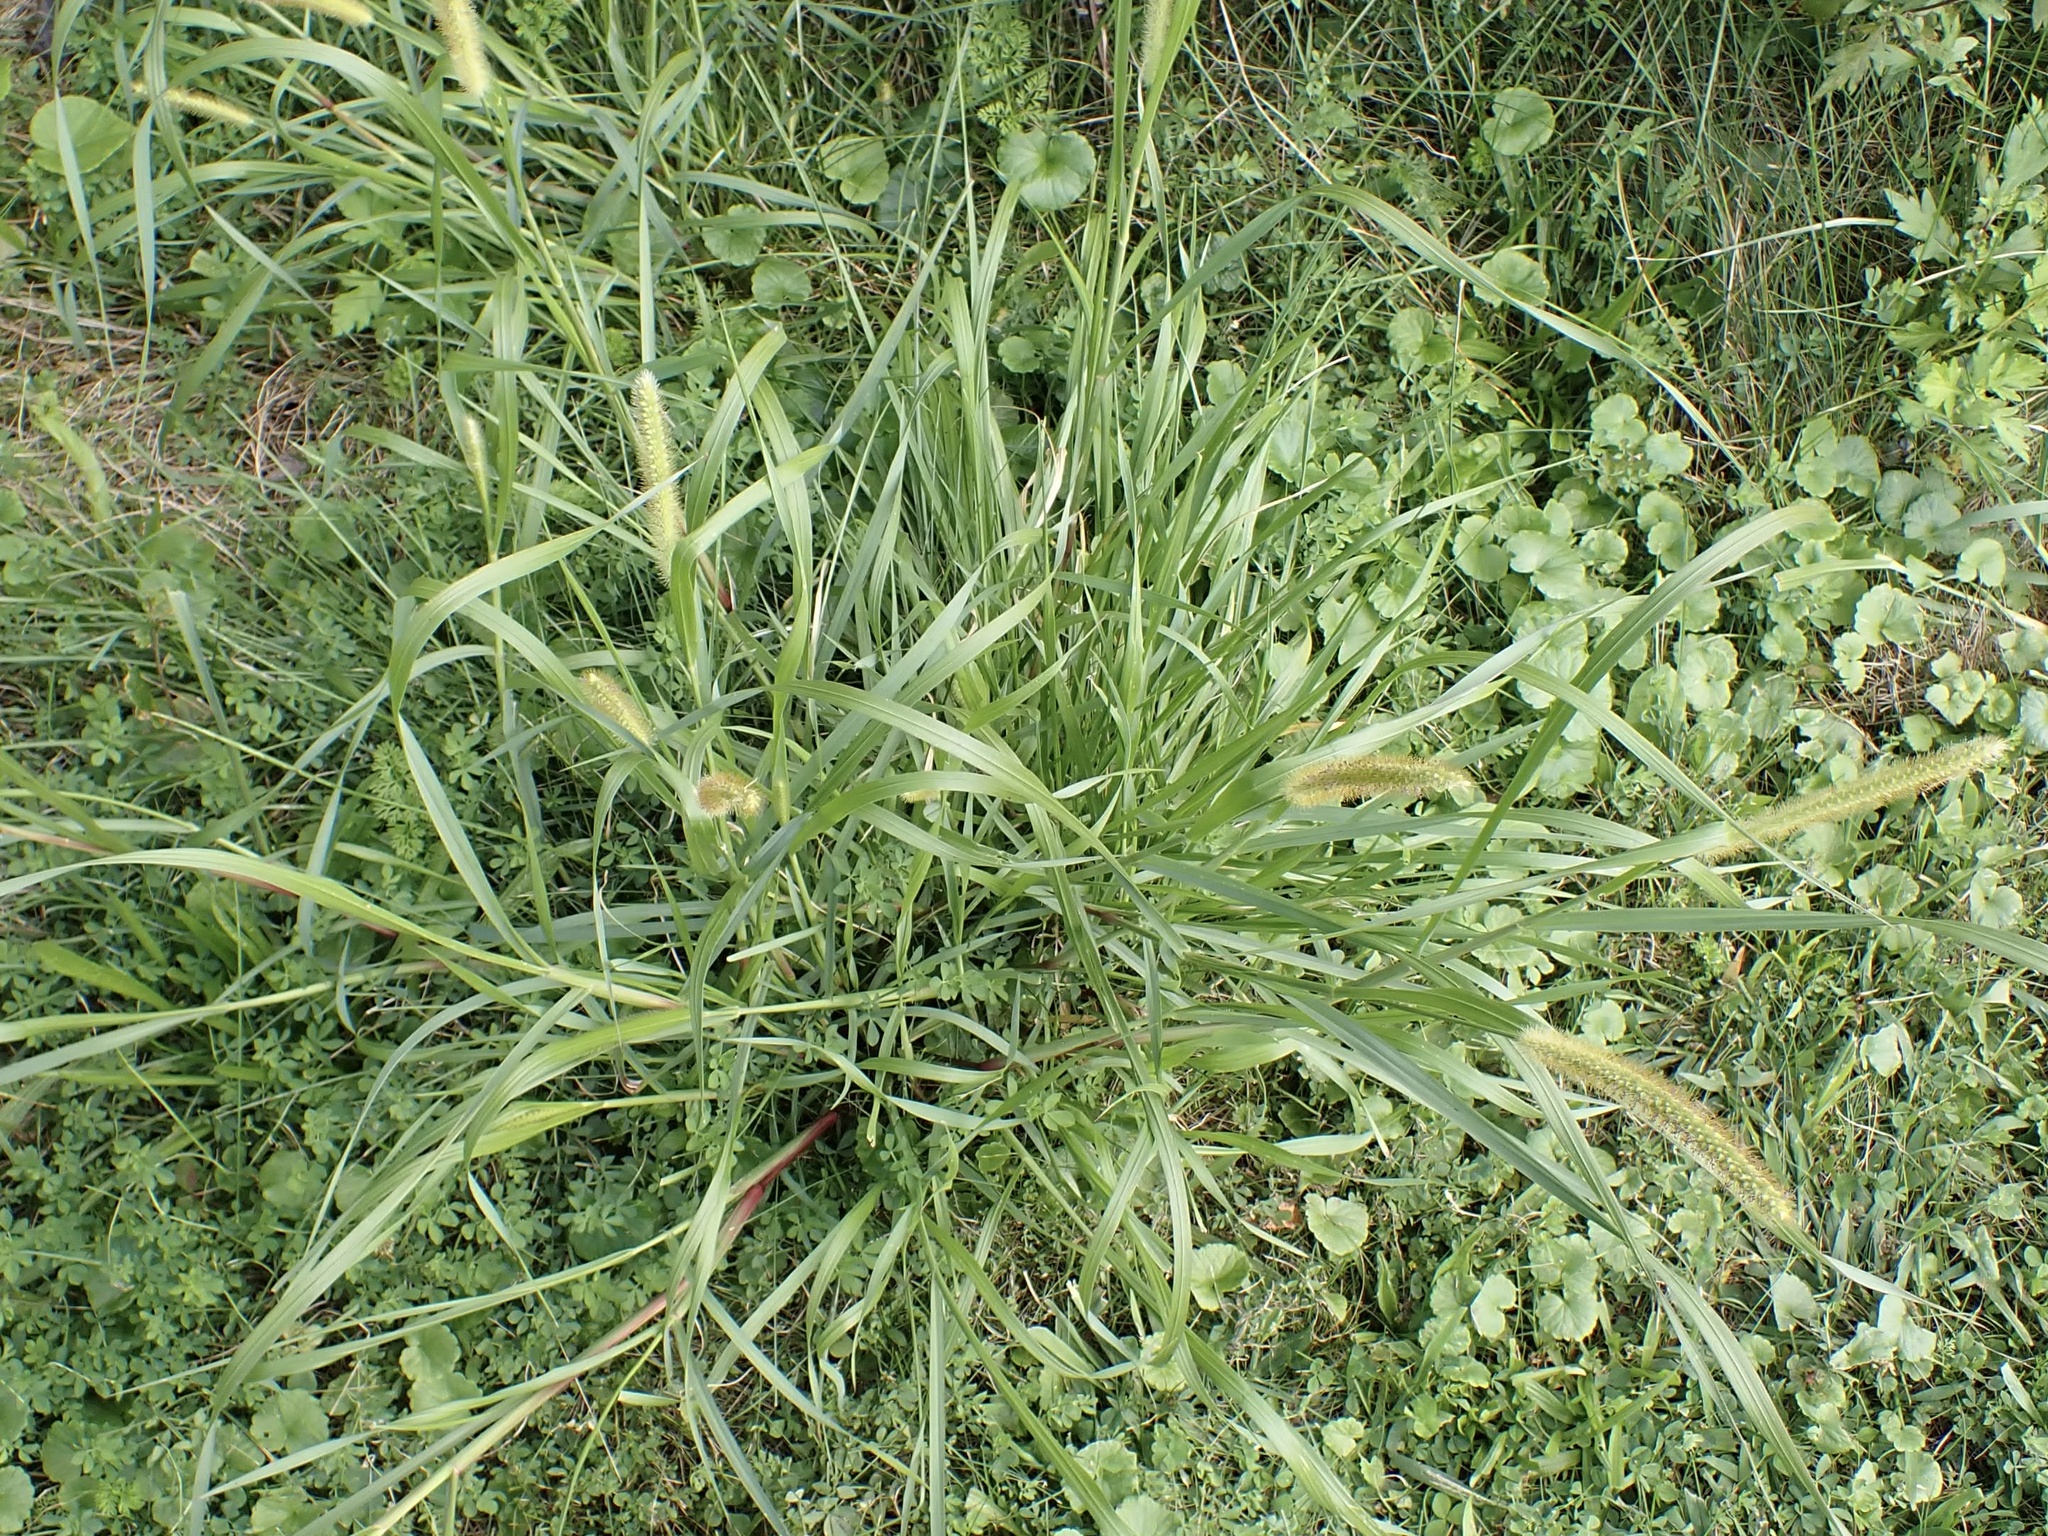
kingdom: Plantae
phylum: Tracheophyta
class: Liliopsida
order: Poales
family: Poaceae
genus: Setaria
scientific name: Setaria pumila
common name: Yellow bristle-grass
